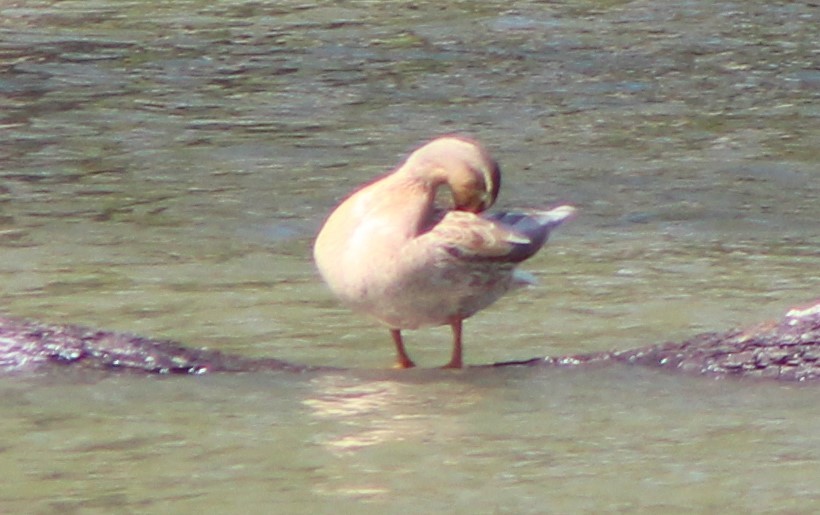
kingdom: Animalia
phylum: Chordata
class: Aves
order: Anseriformes
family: Anatidae
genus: Anas
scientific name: Anas platyrhynchos
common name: Mallard
